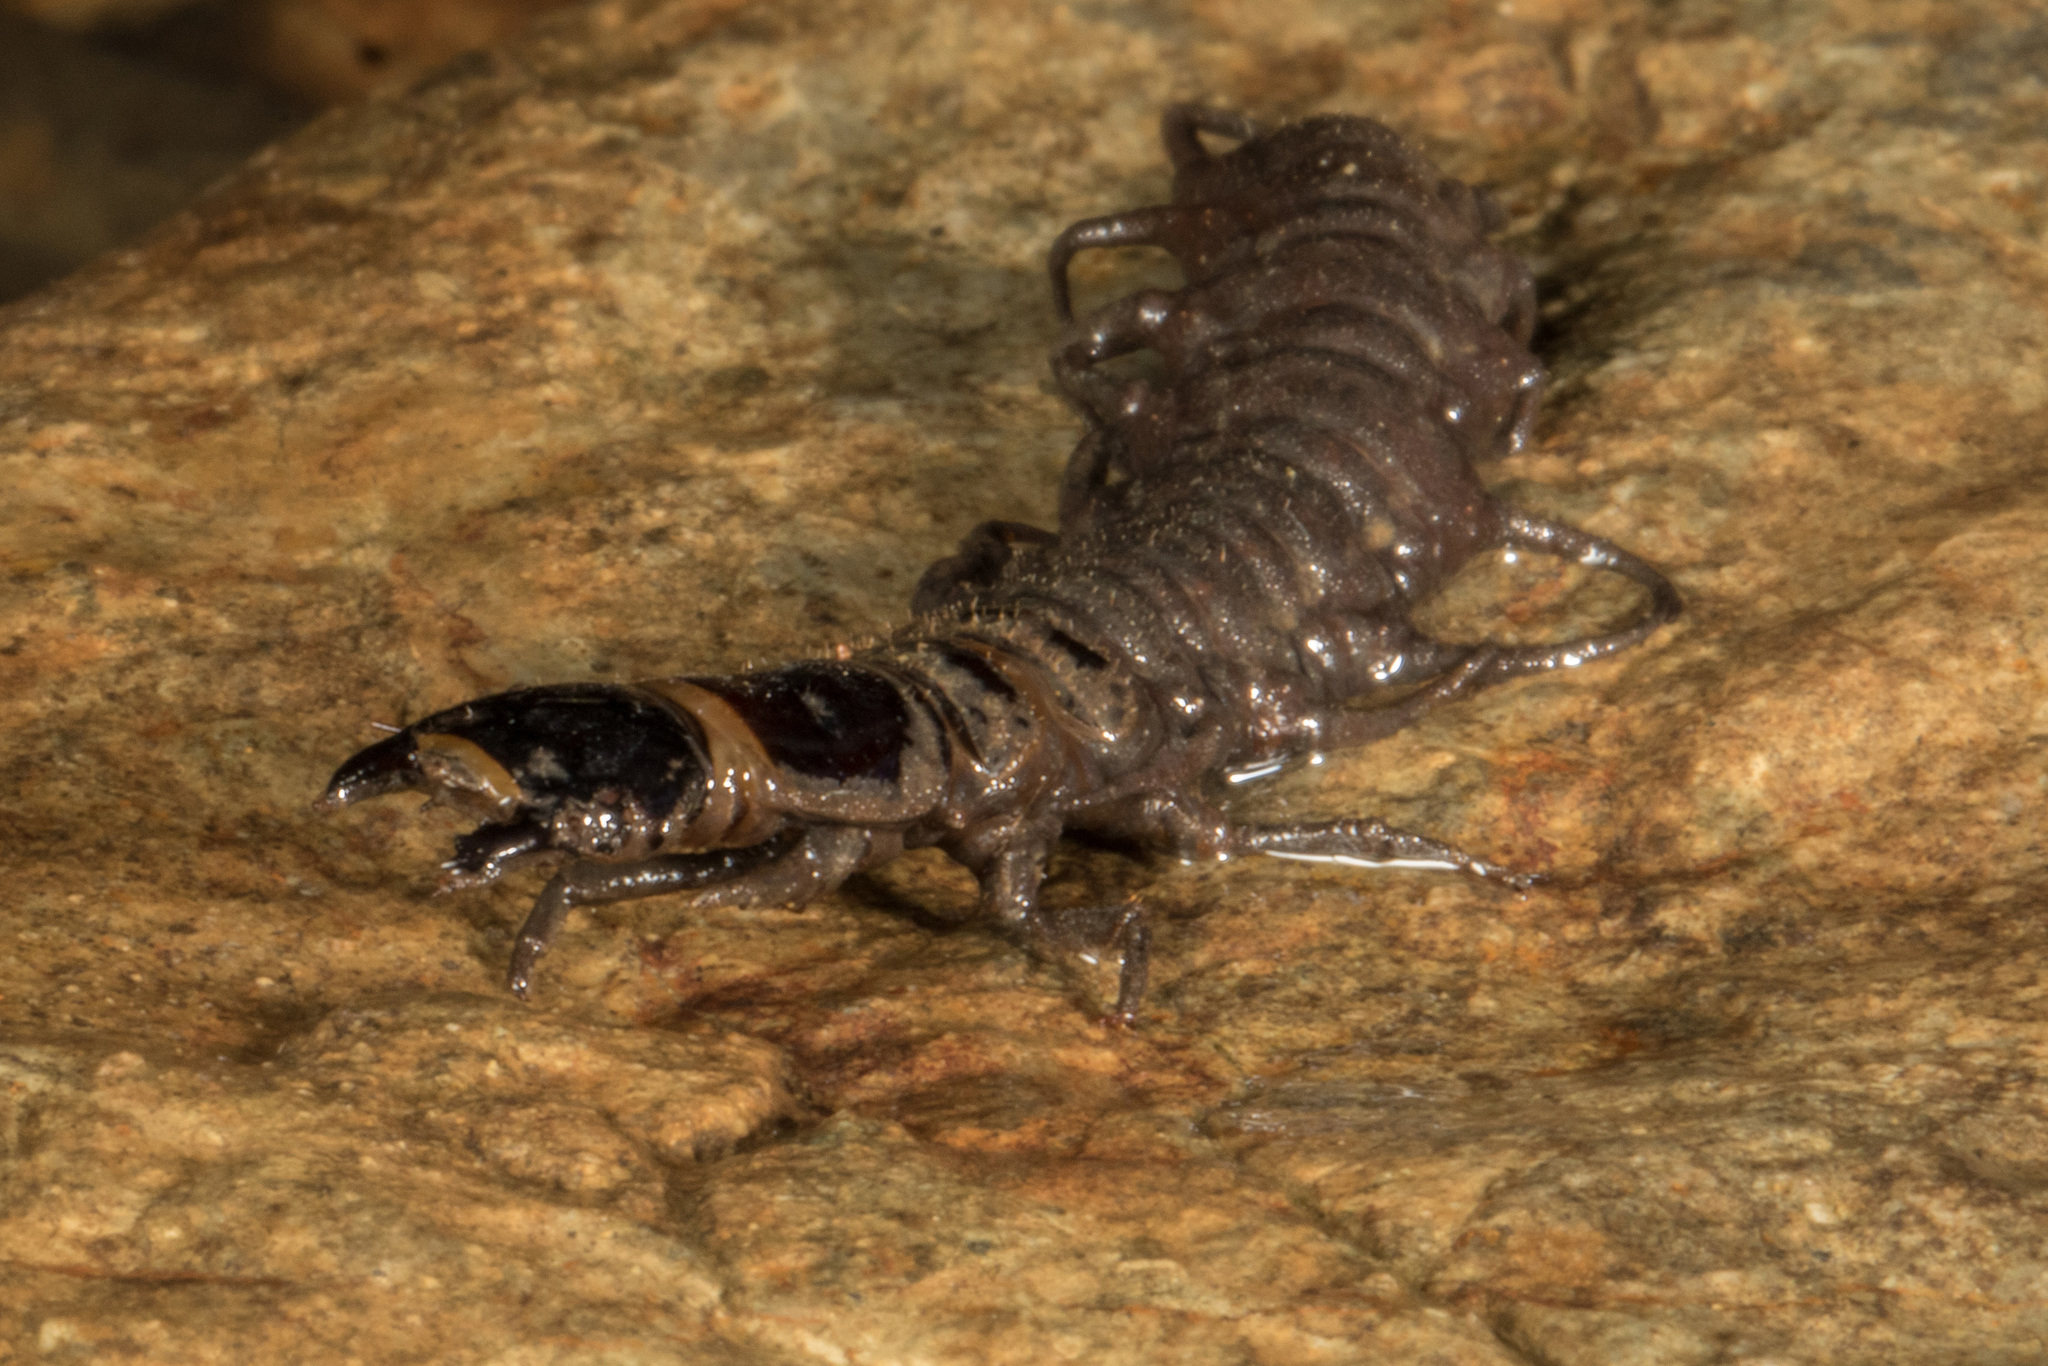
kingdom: Animalia
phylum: Arthropoda
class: Insecta
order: Megaloptera
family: Corydalidae
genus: Archichauliodes
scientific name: Archichauliodes diversus
